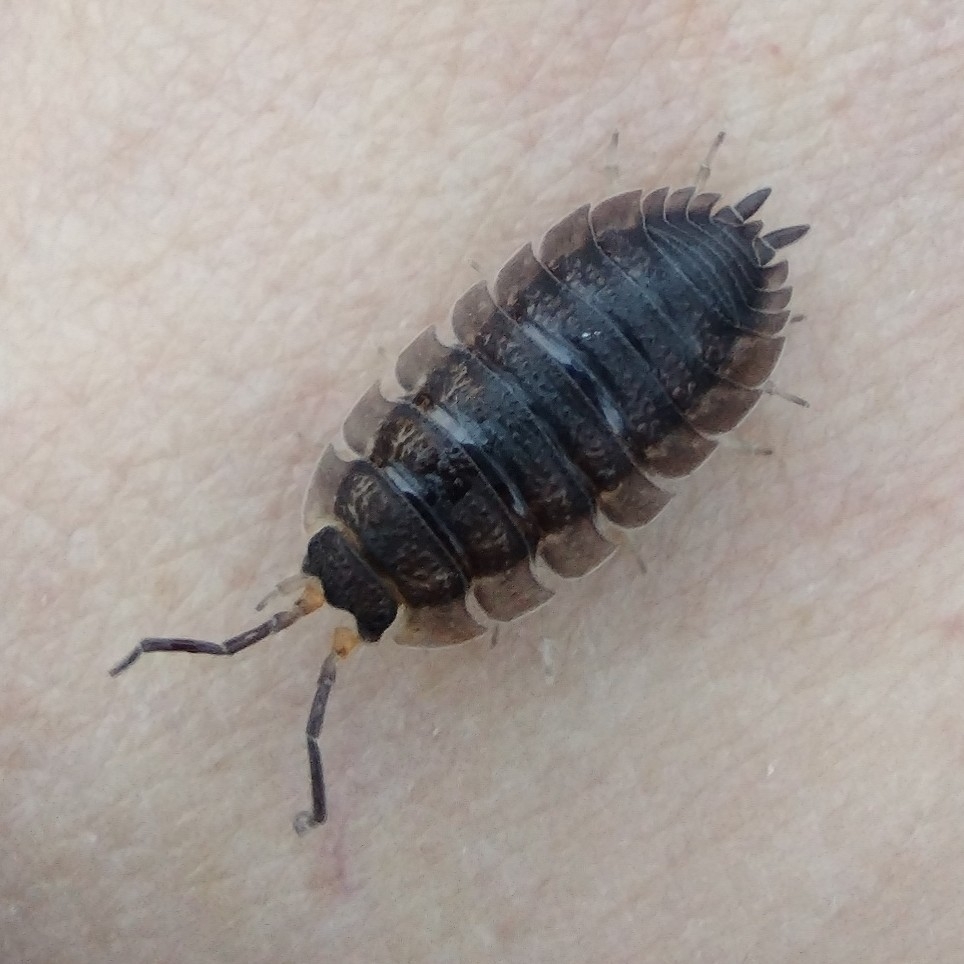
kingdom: Animalia
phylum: Arthropoda
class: Malacostraca
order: Isopoda
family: Porcellionidae
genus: Porcellio
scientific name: Porcellio scaber
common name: Common rough woodlouse
